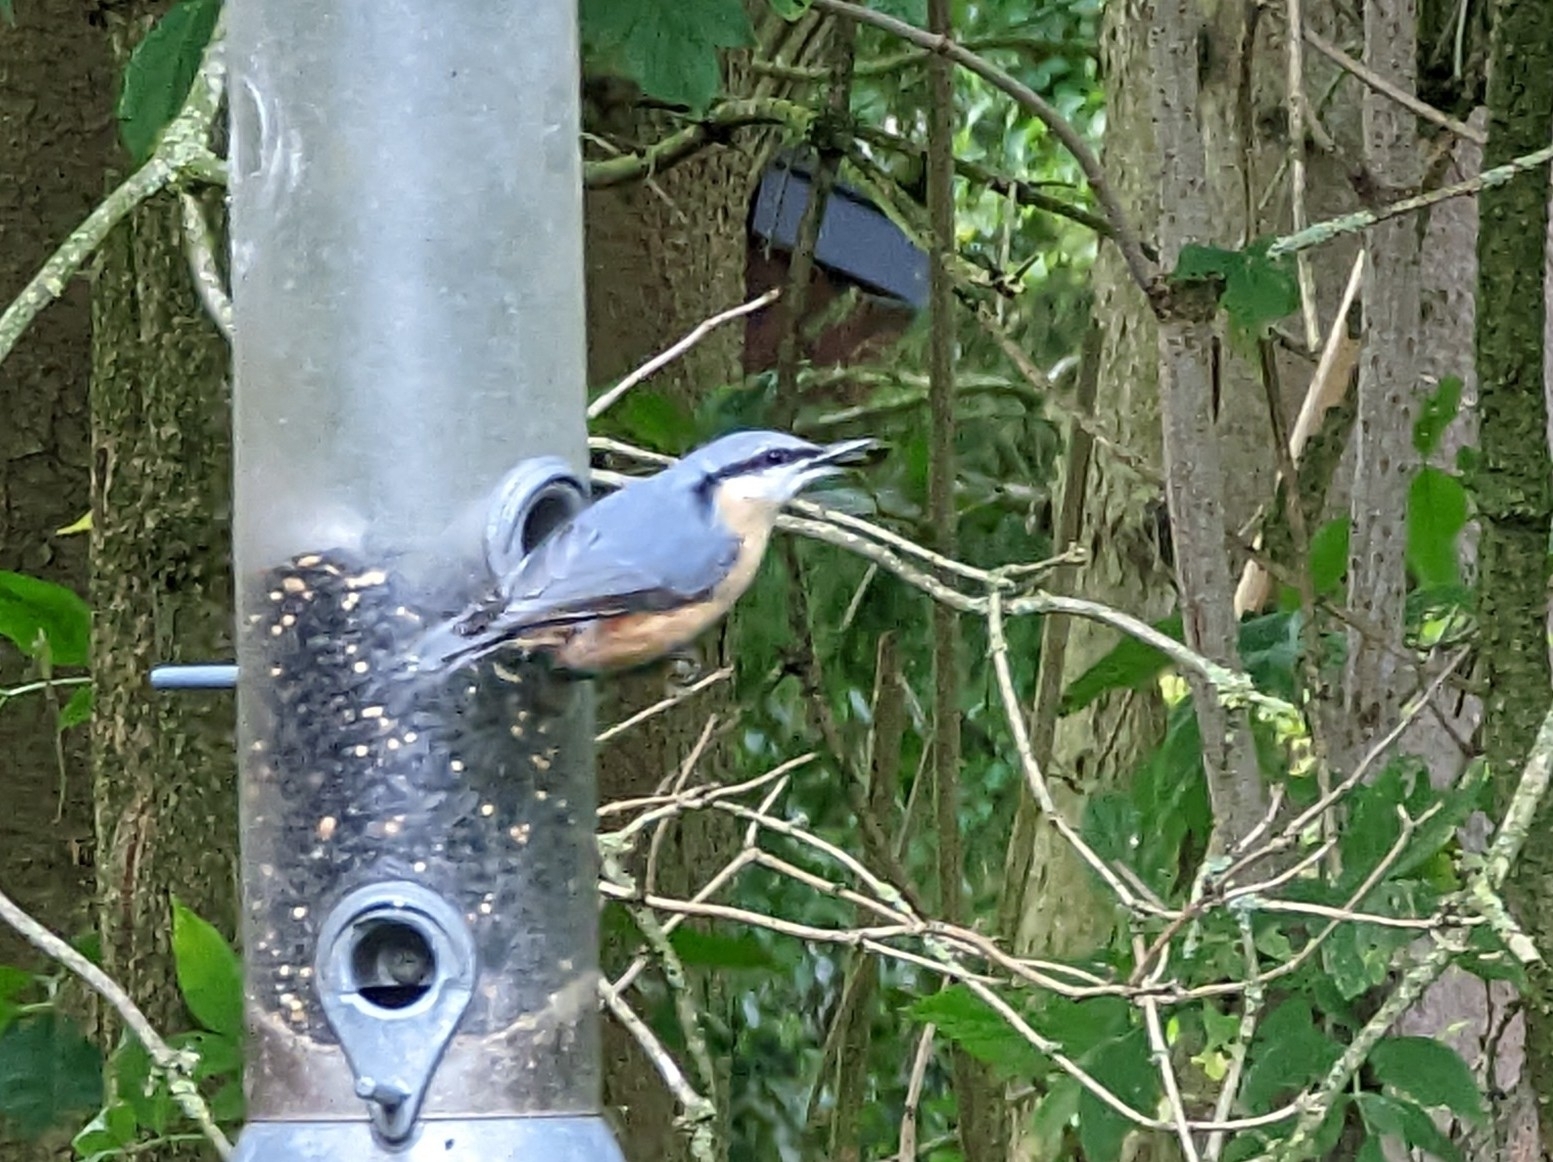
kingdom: Animalia
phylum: Chordata
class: Aves
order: Passeriformes
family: Sittidae
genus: Sitta
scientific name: Sitta europaea
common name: Eurasian nuthatch
